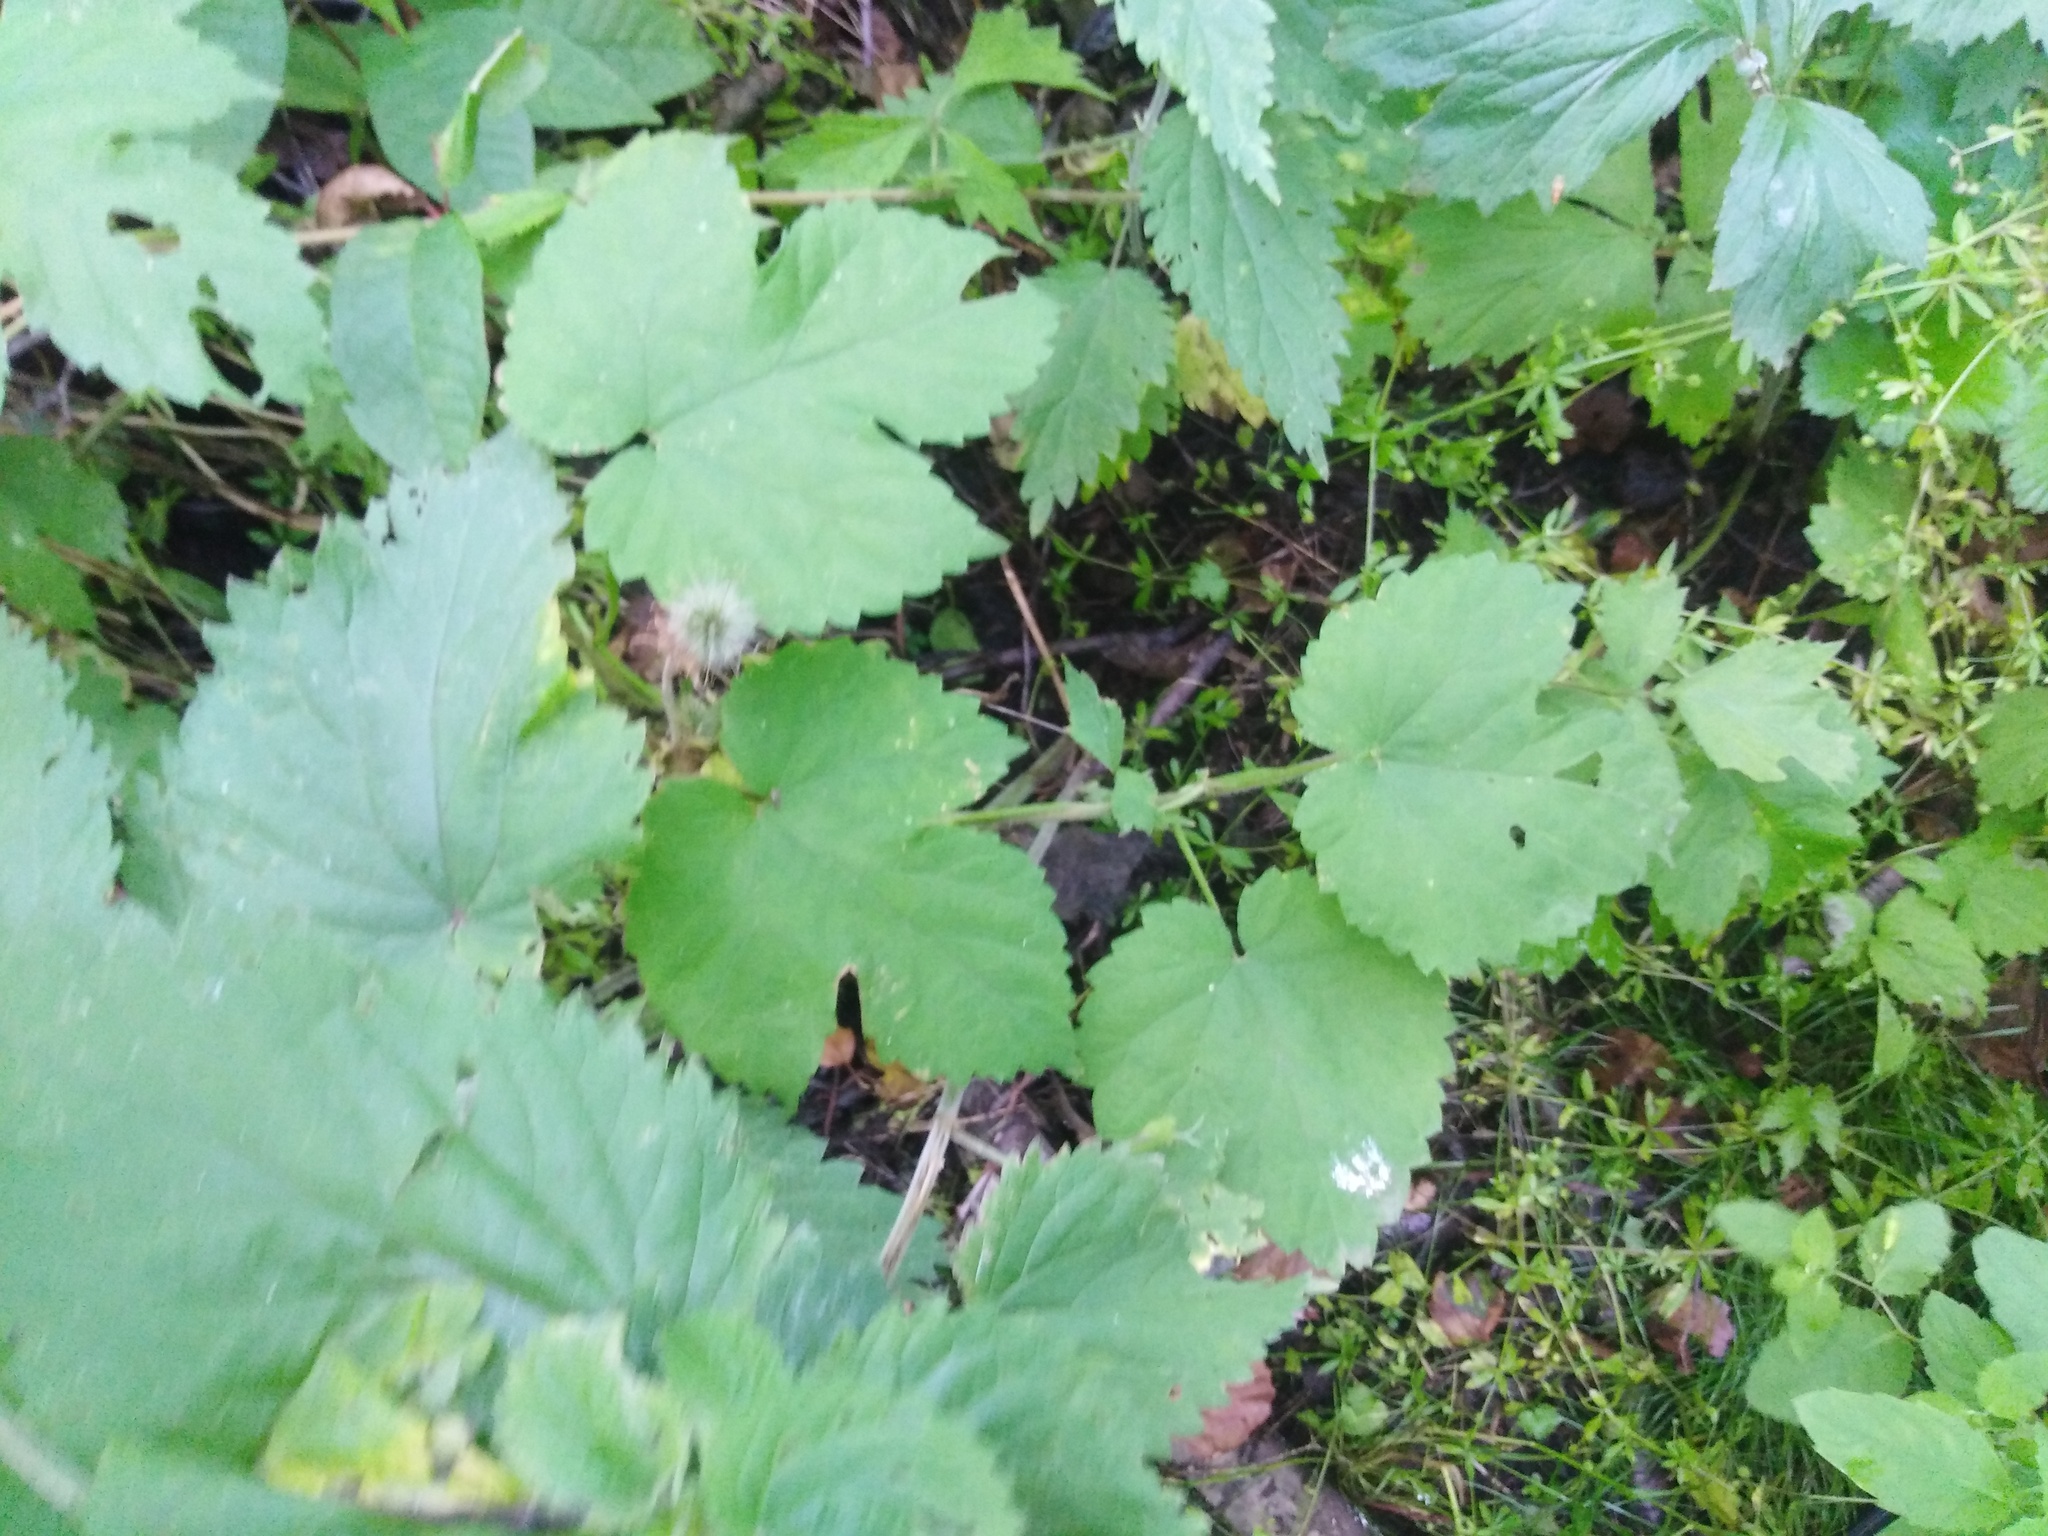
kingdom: Plantae
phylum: Tracheophyta
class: Magnoliopsida
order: Rosales
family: Cannabaceae
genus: Humulus
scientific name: Humulus lupulus
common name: Hop
